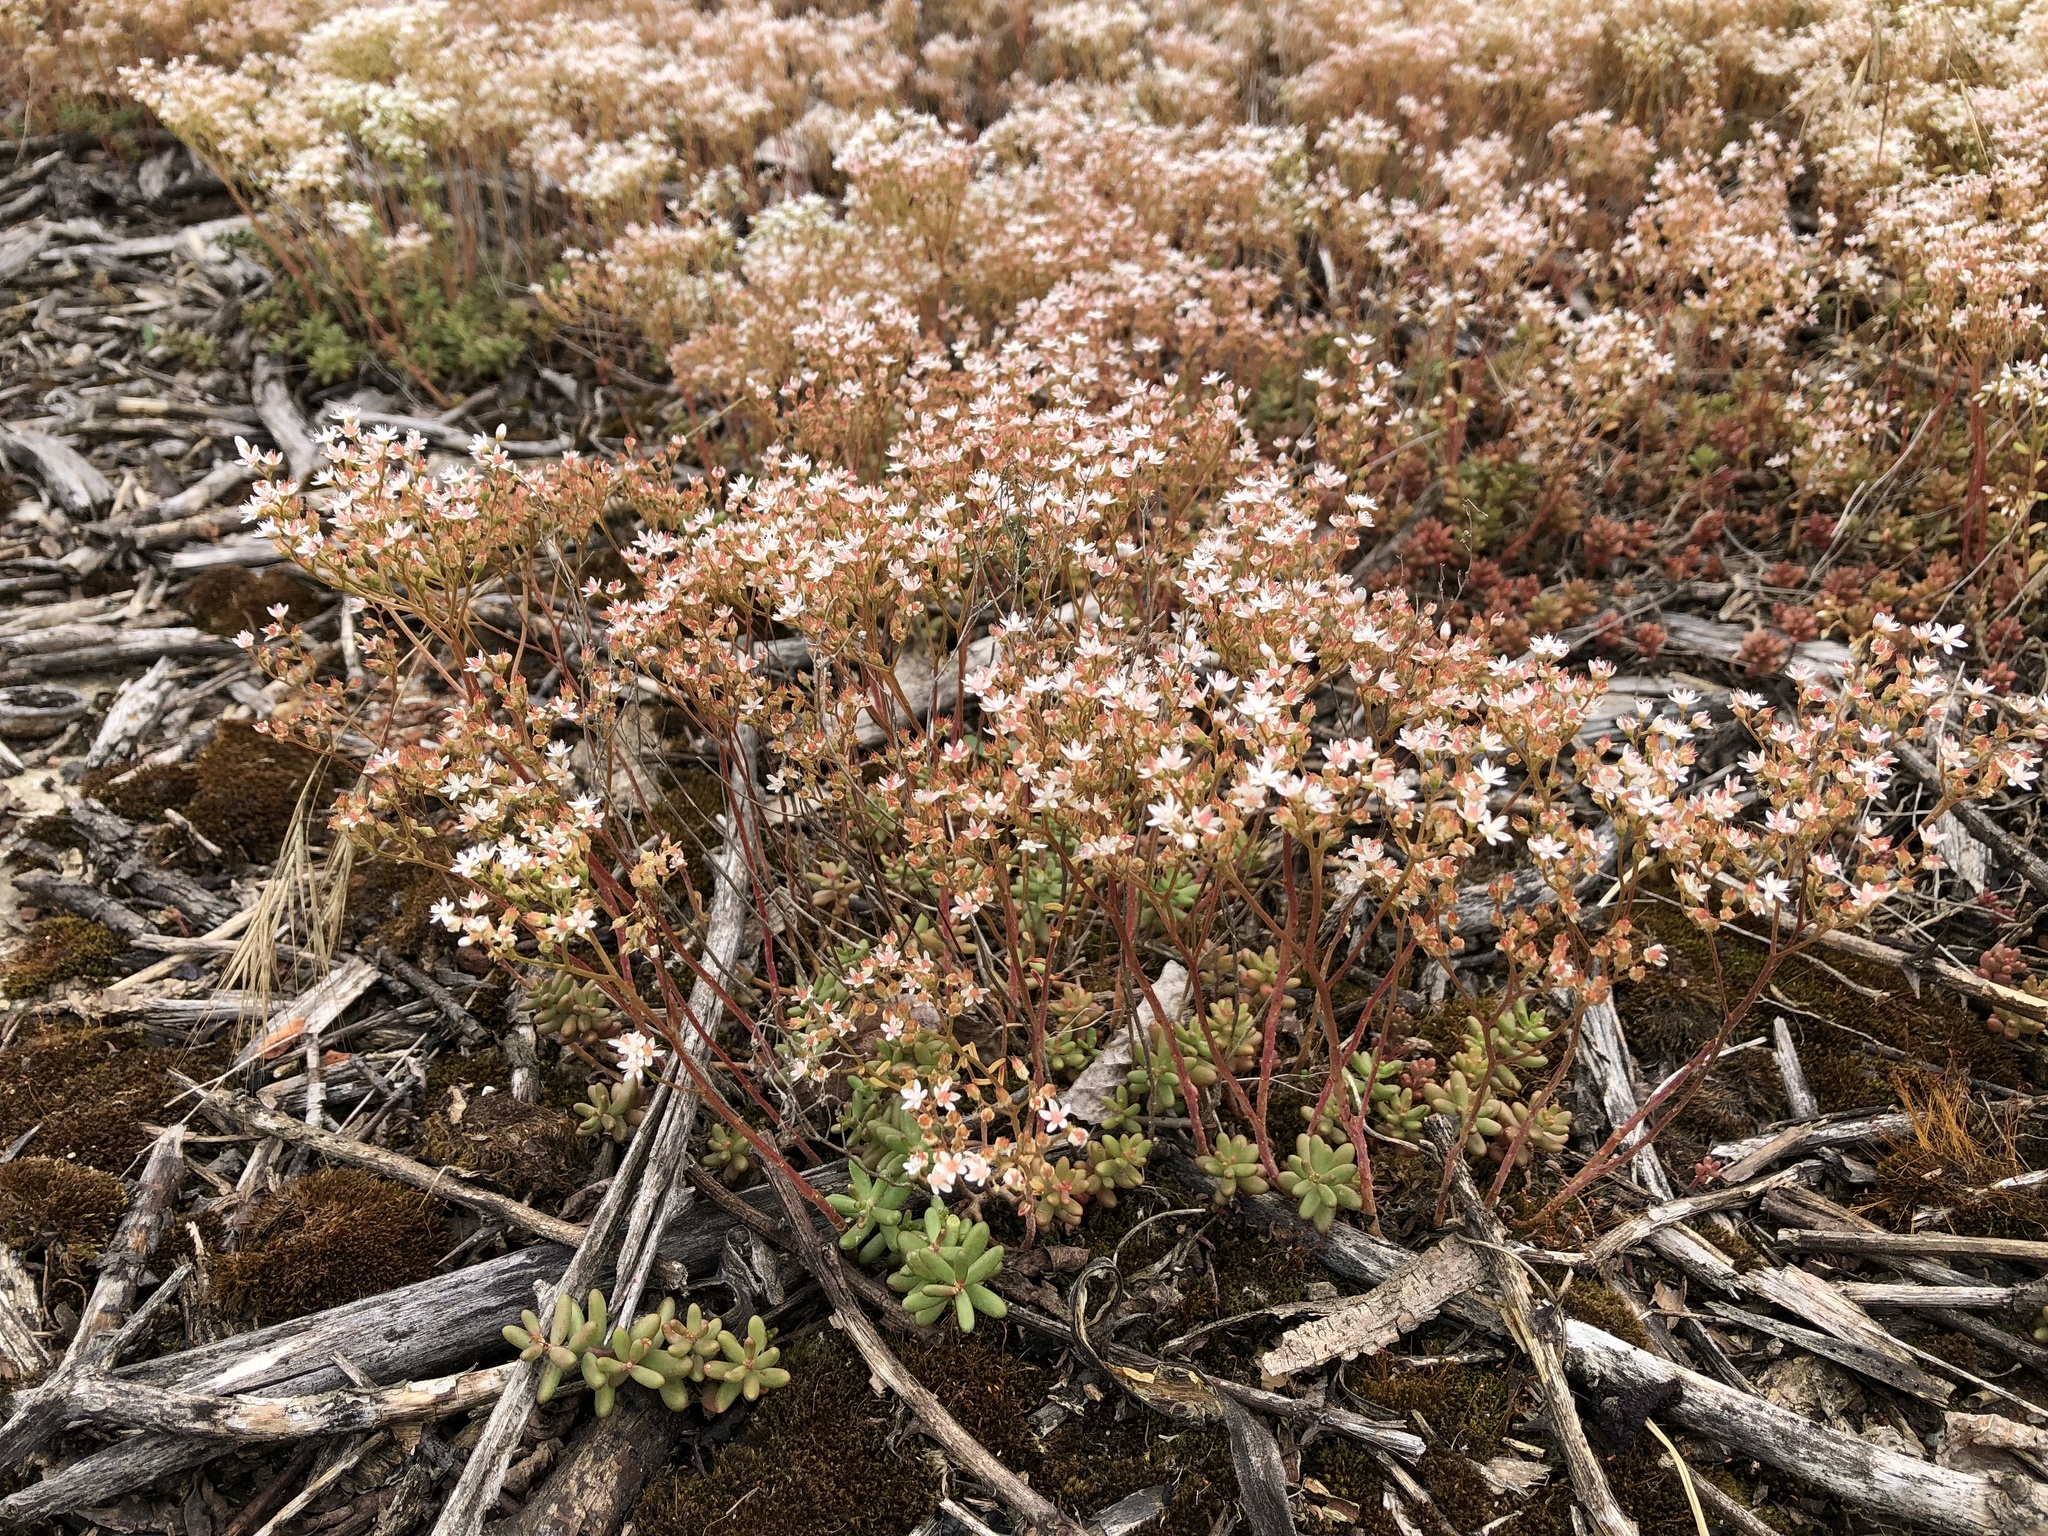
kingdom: Plantae
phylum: Tracheophyta
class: Magnoliopsida
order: Saxifragales
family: Crassulaceae
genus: Sedum
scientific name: Sedum album
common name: White stonecrop
